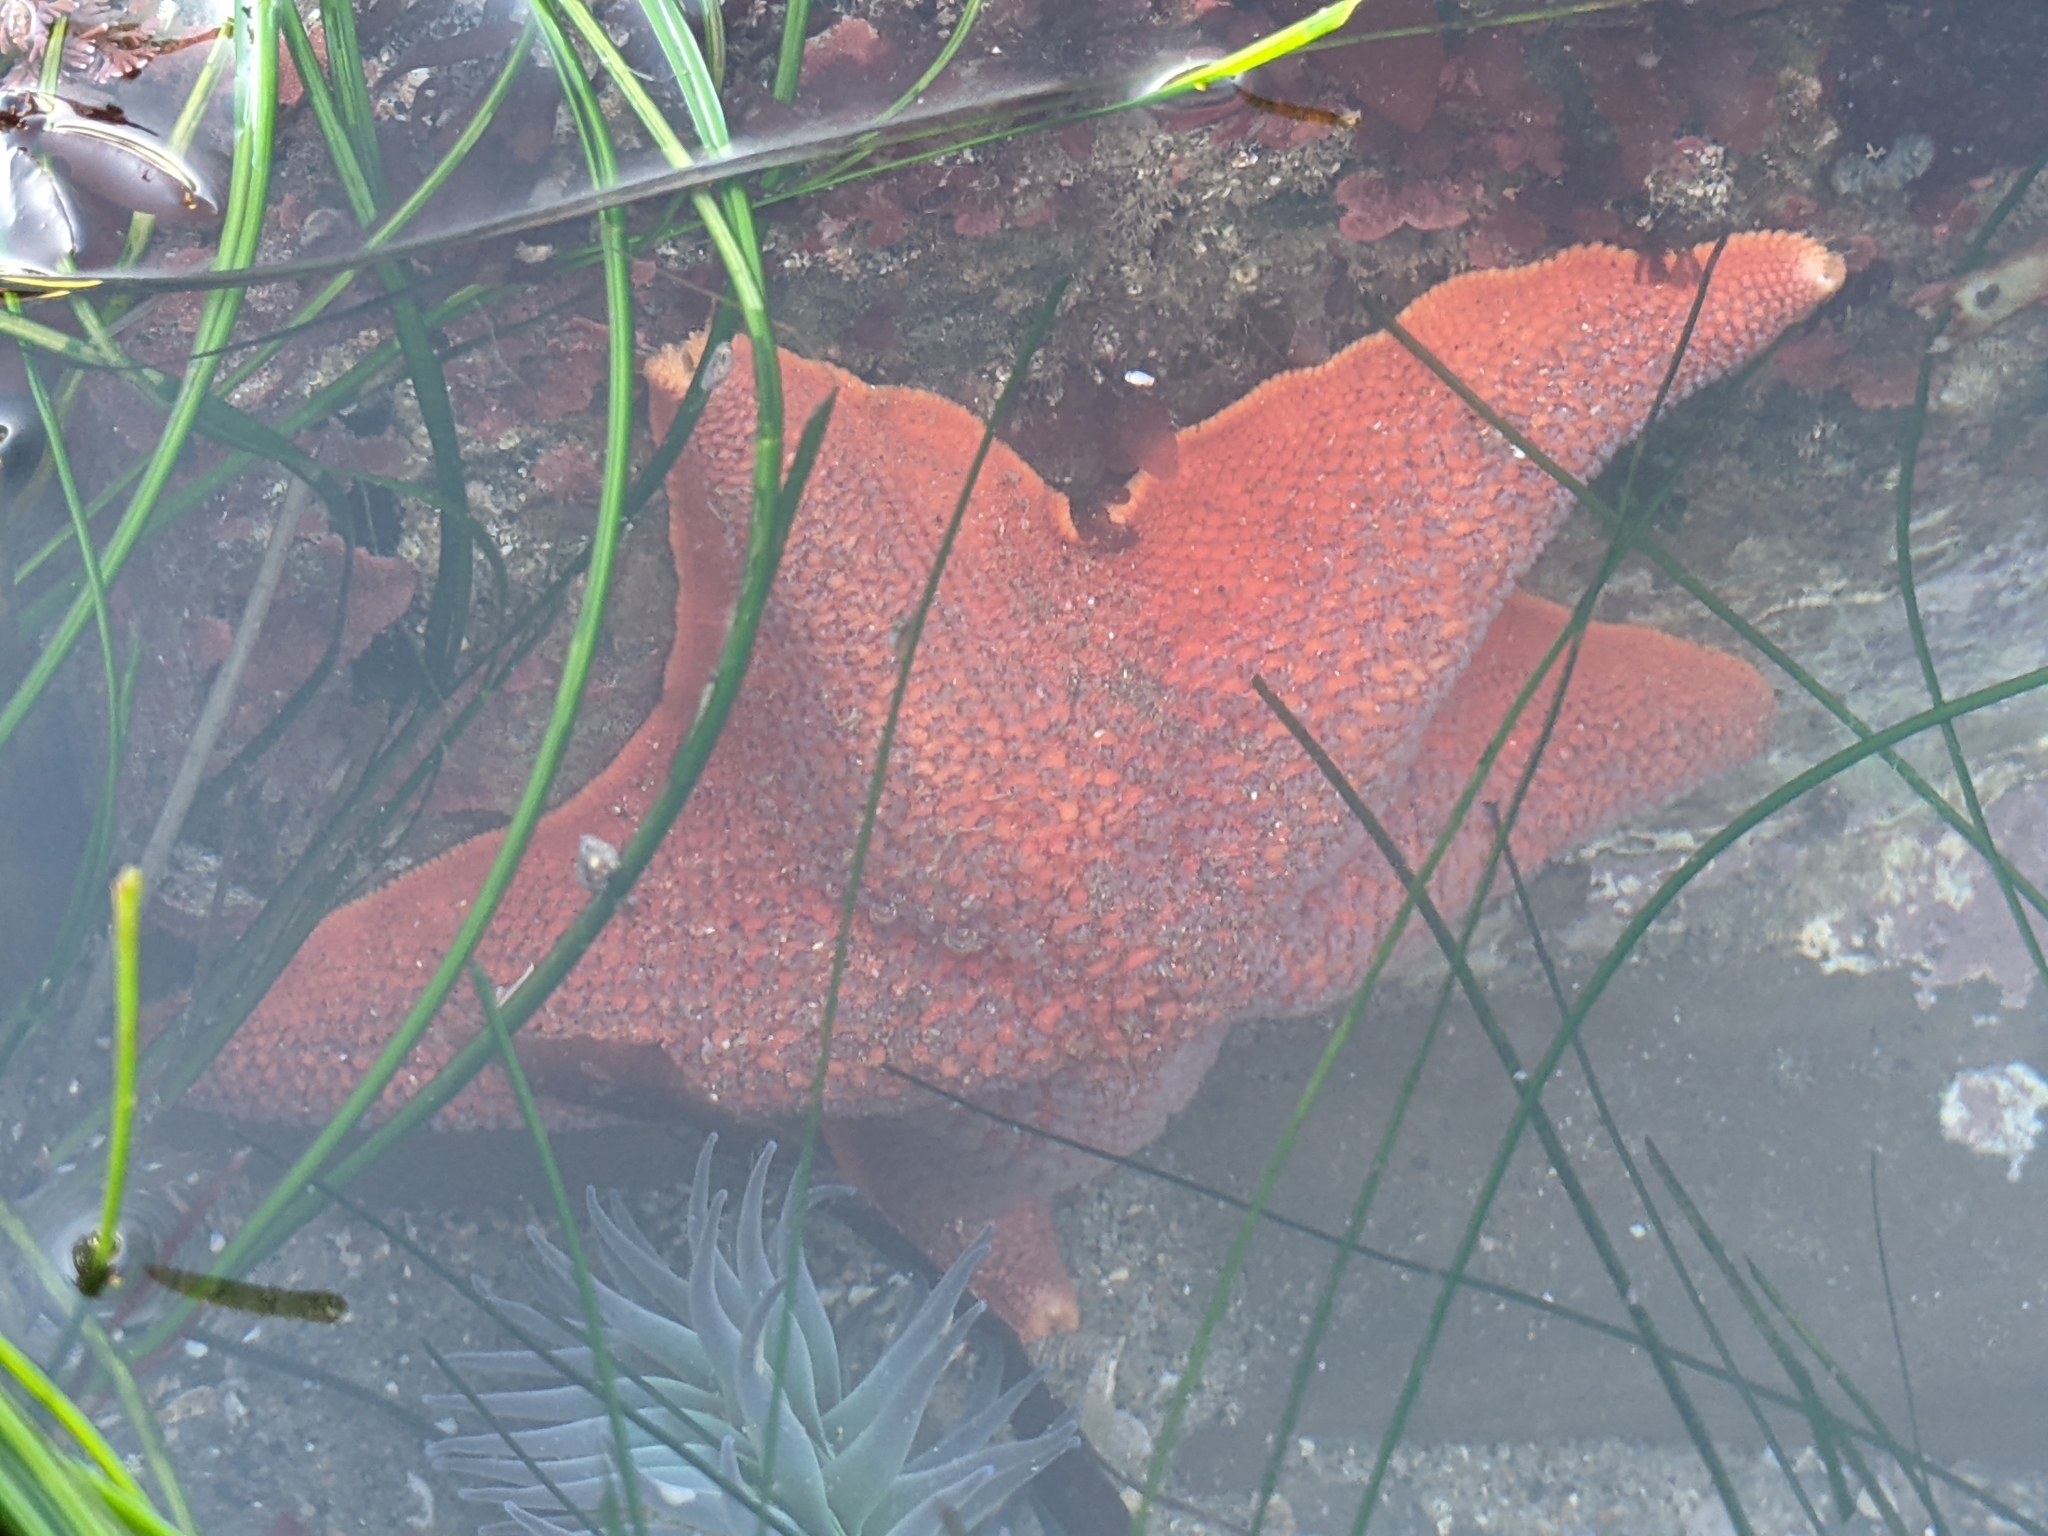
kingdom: Animalia
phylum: Echinodermata
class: Asteroidea
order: Valvatida
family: Asterinidae
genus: Patiria
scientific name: Patiria miniata
